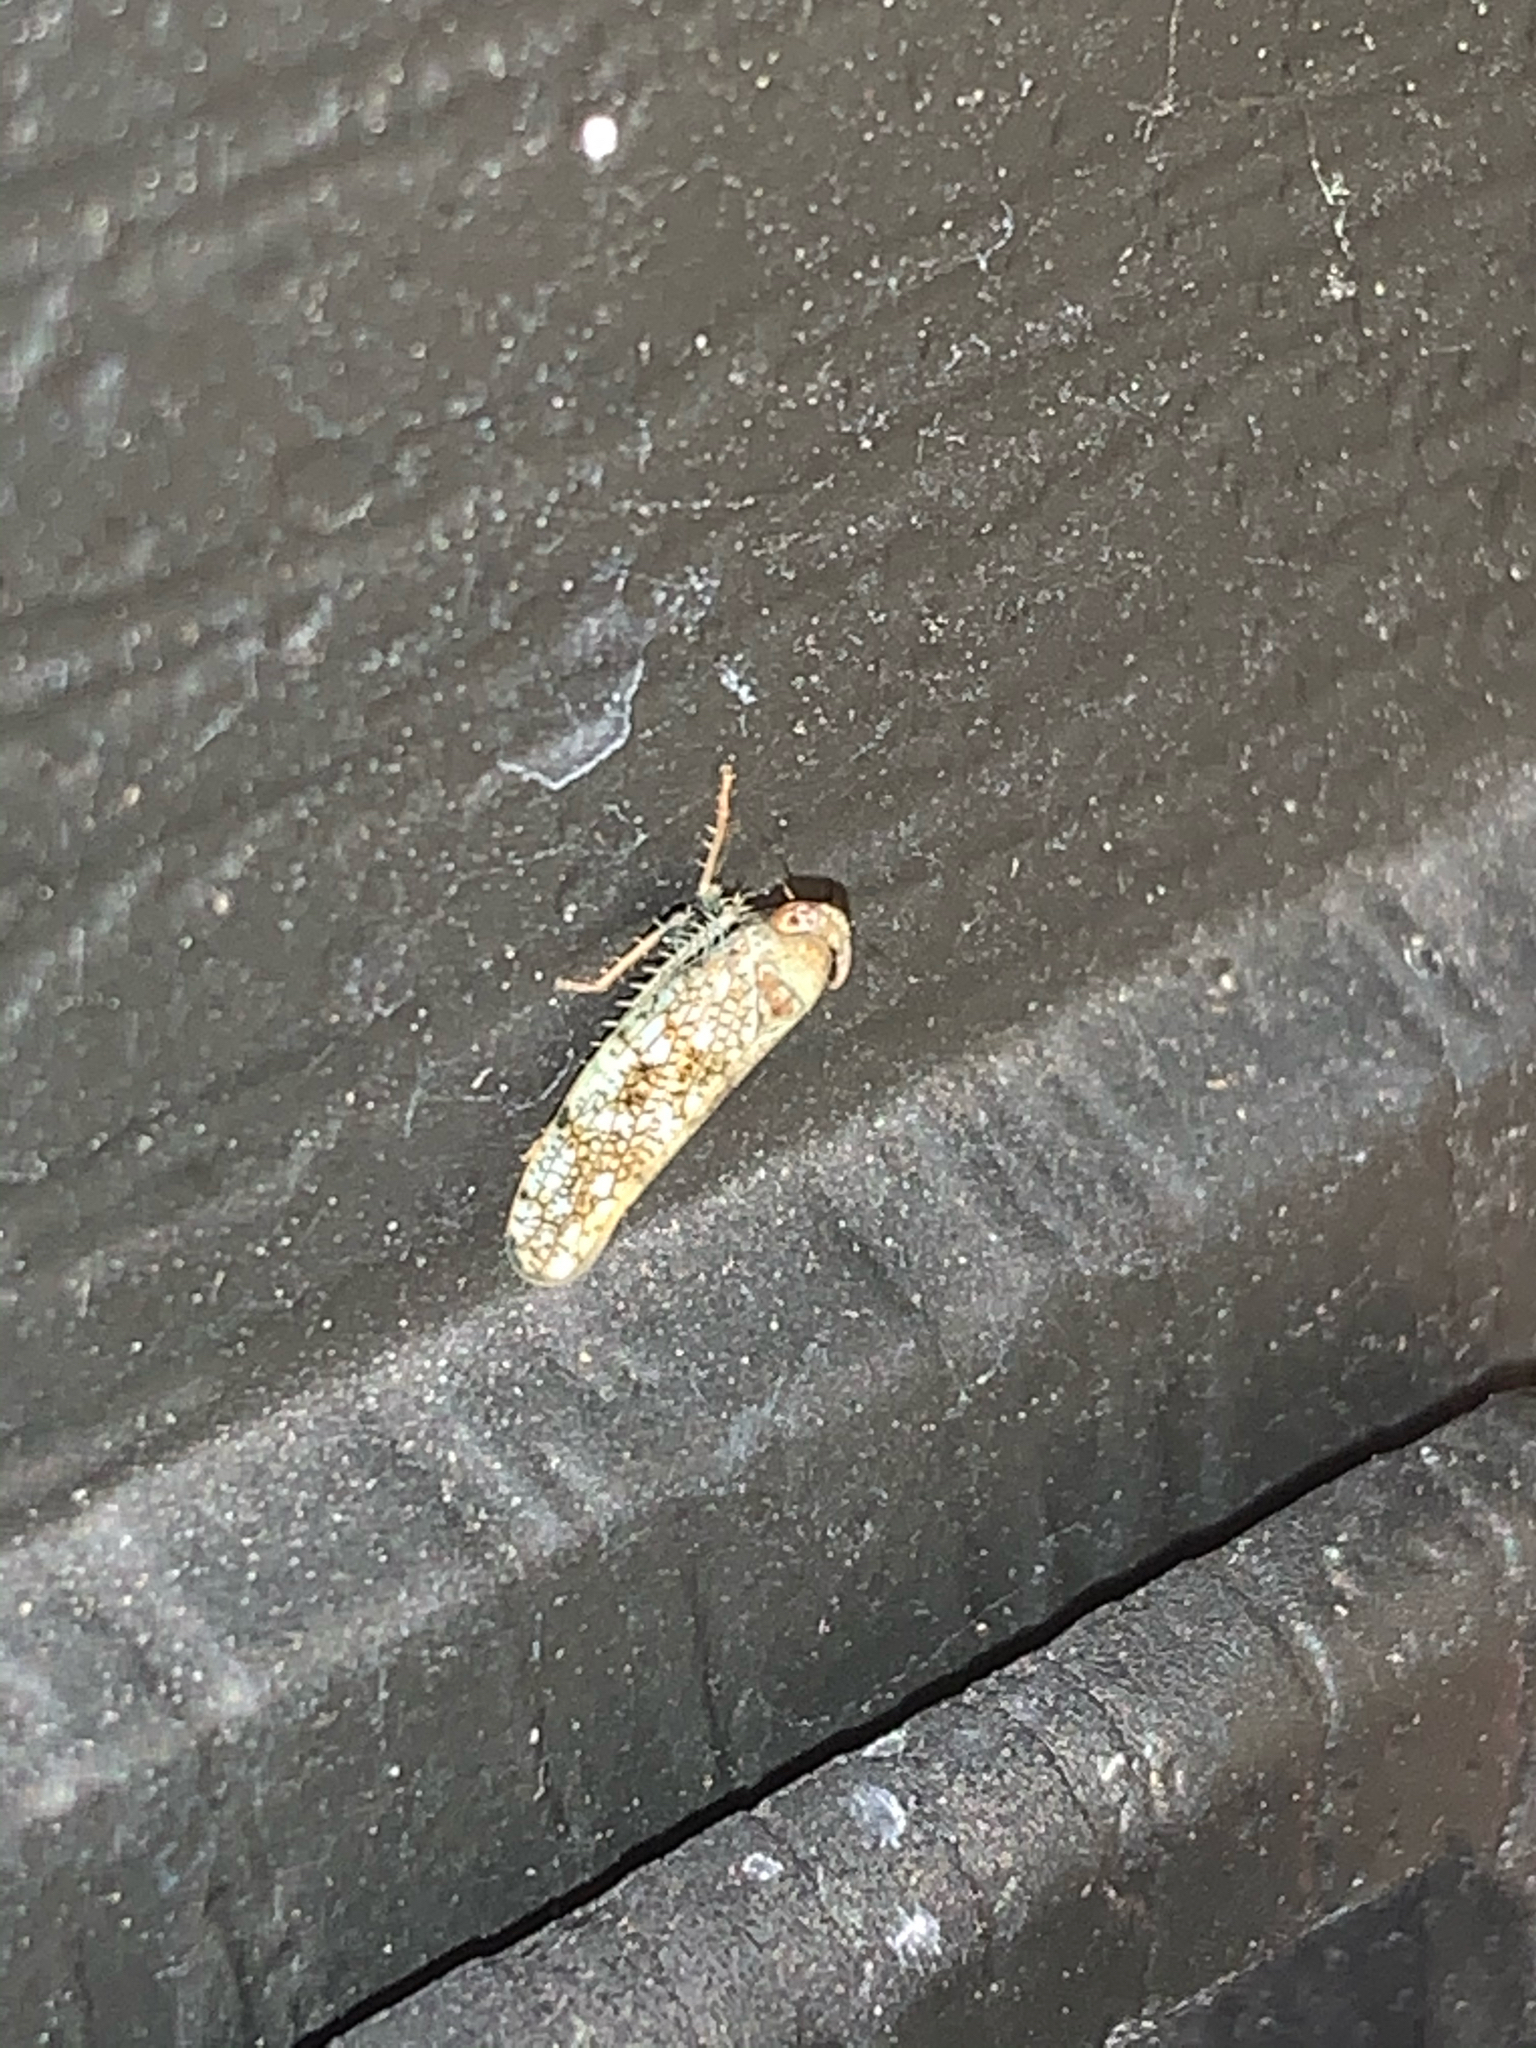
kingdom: Animalia
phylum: Arthropoda
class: Insecta
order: Hemiptera
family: Cicadellidae
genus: Orientus
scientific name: Orientus ishidae
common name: Japanese leafhopper
